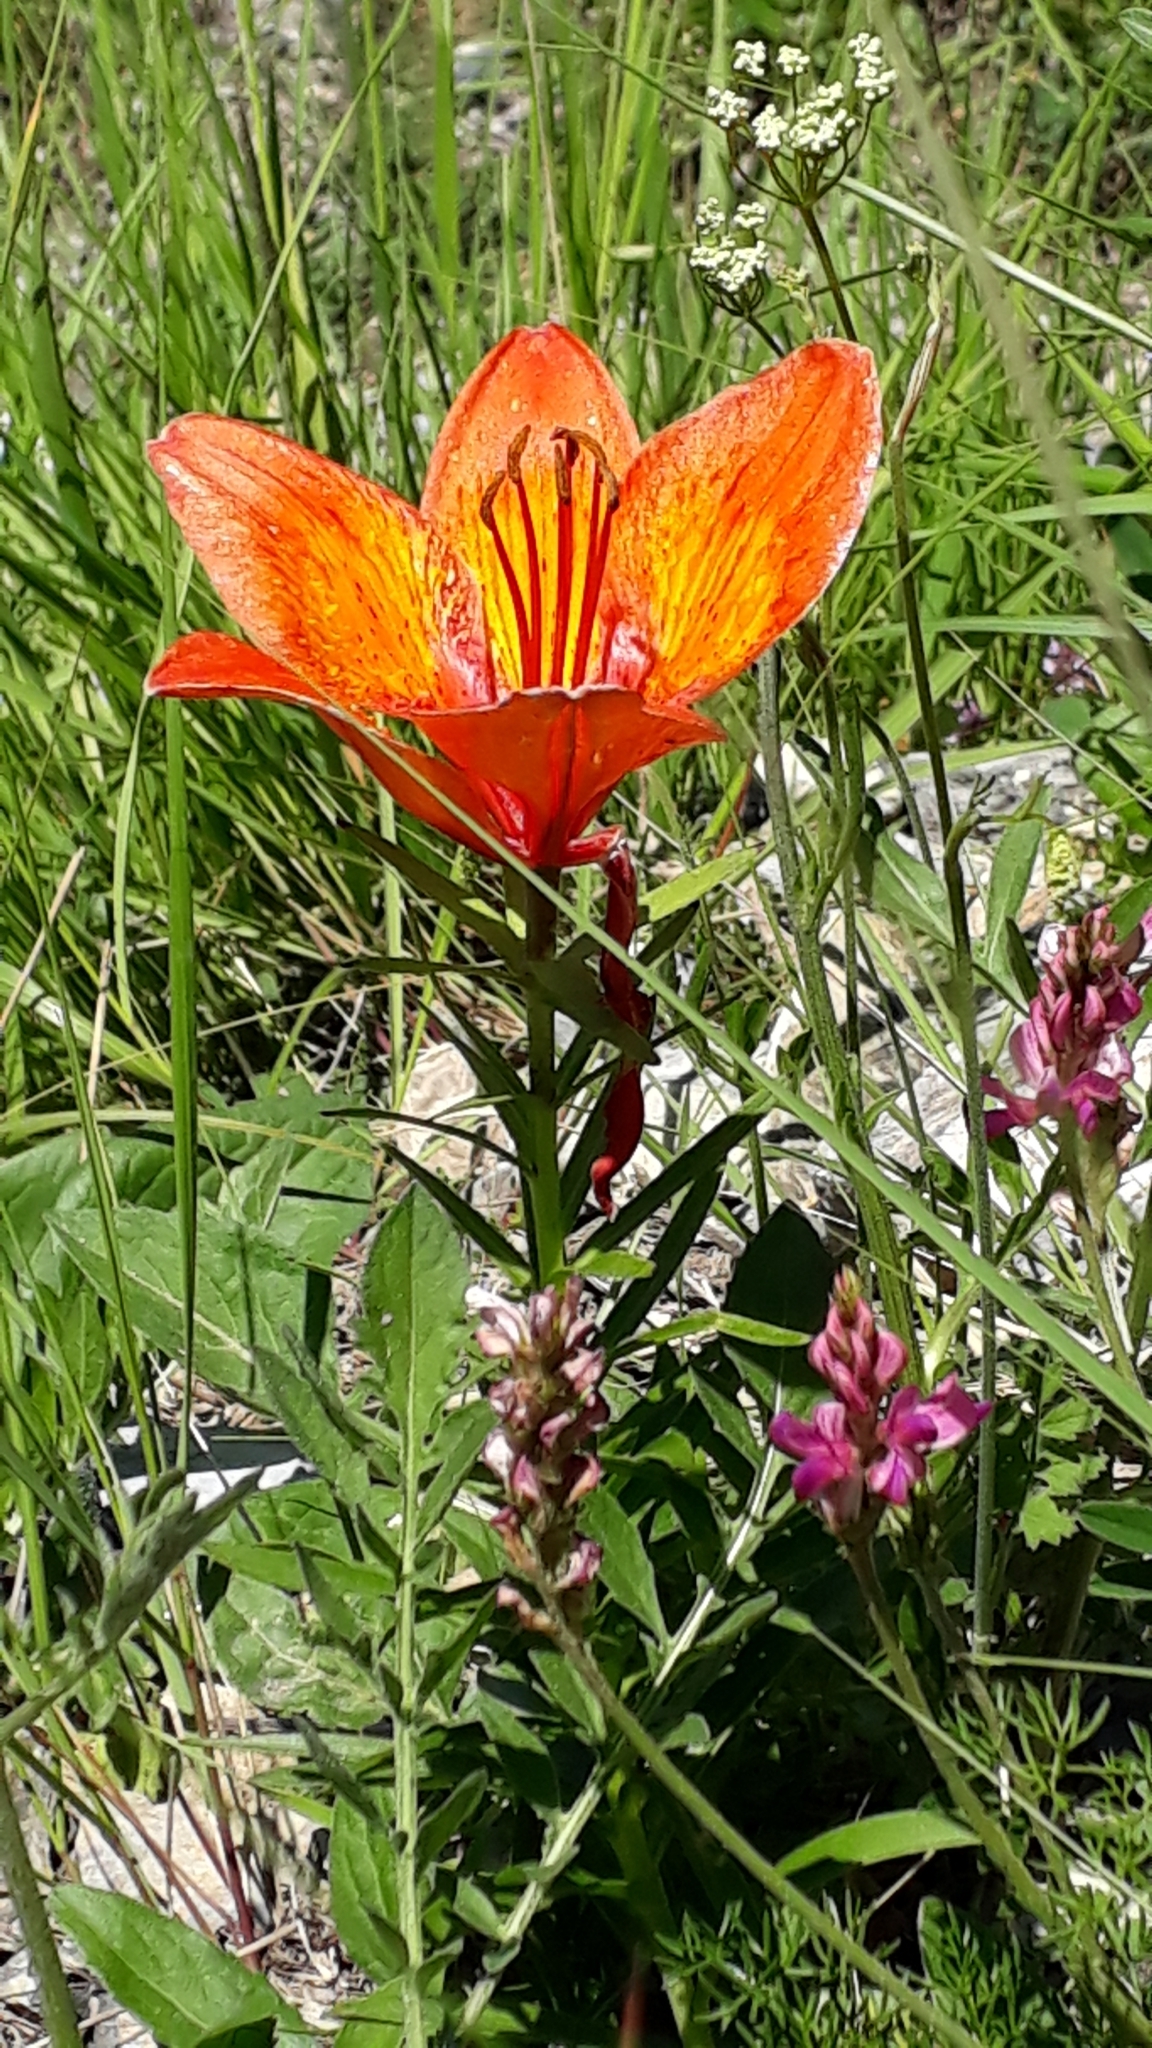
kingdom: Plantae
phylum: Tracheophyta
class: Liliopsida
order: Liliales
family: Liliaceae
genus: Lilium
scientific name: Lilium bulbiferum
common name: Orange lily
